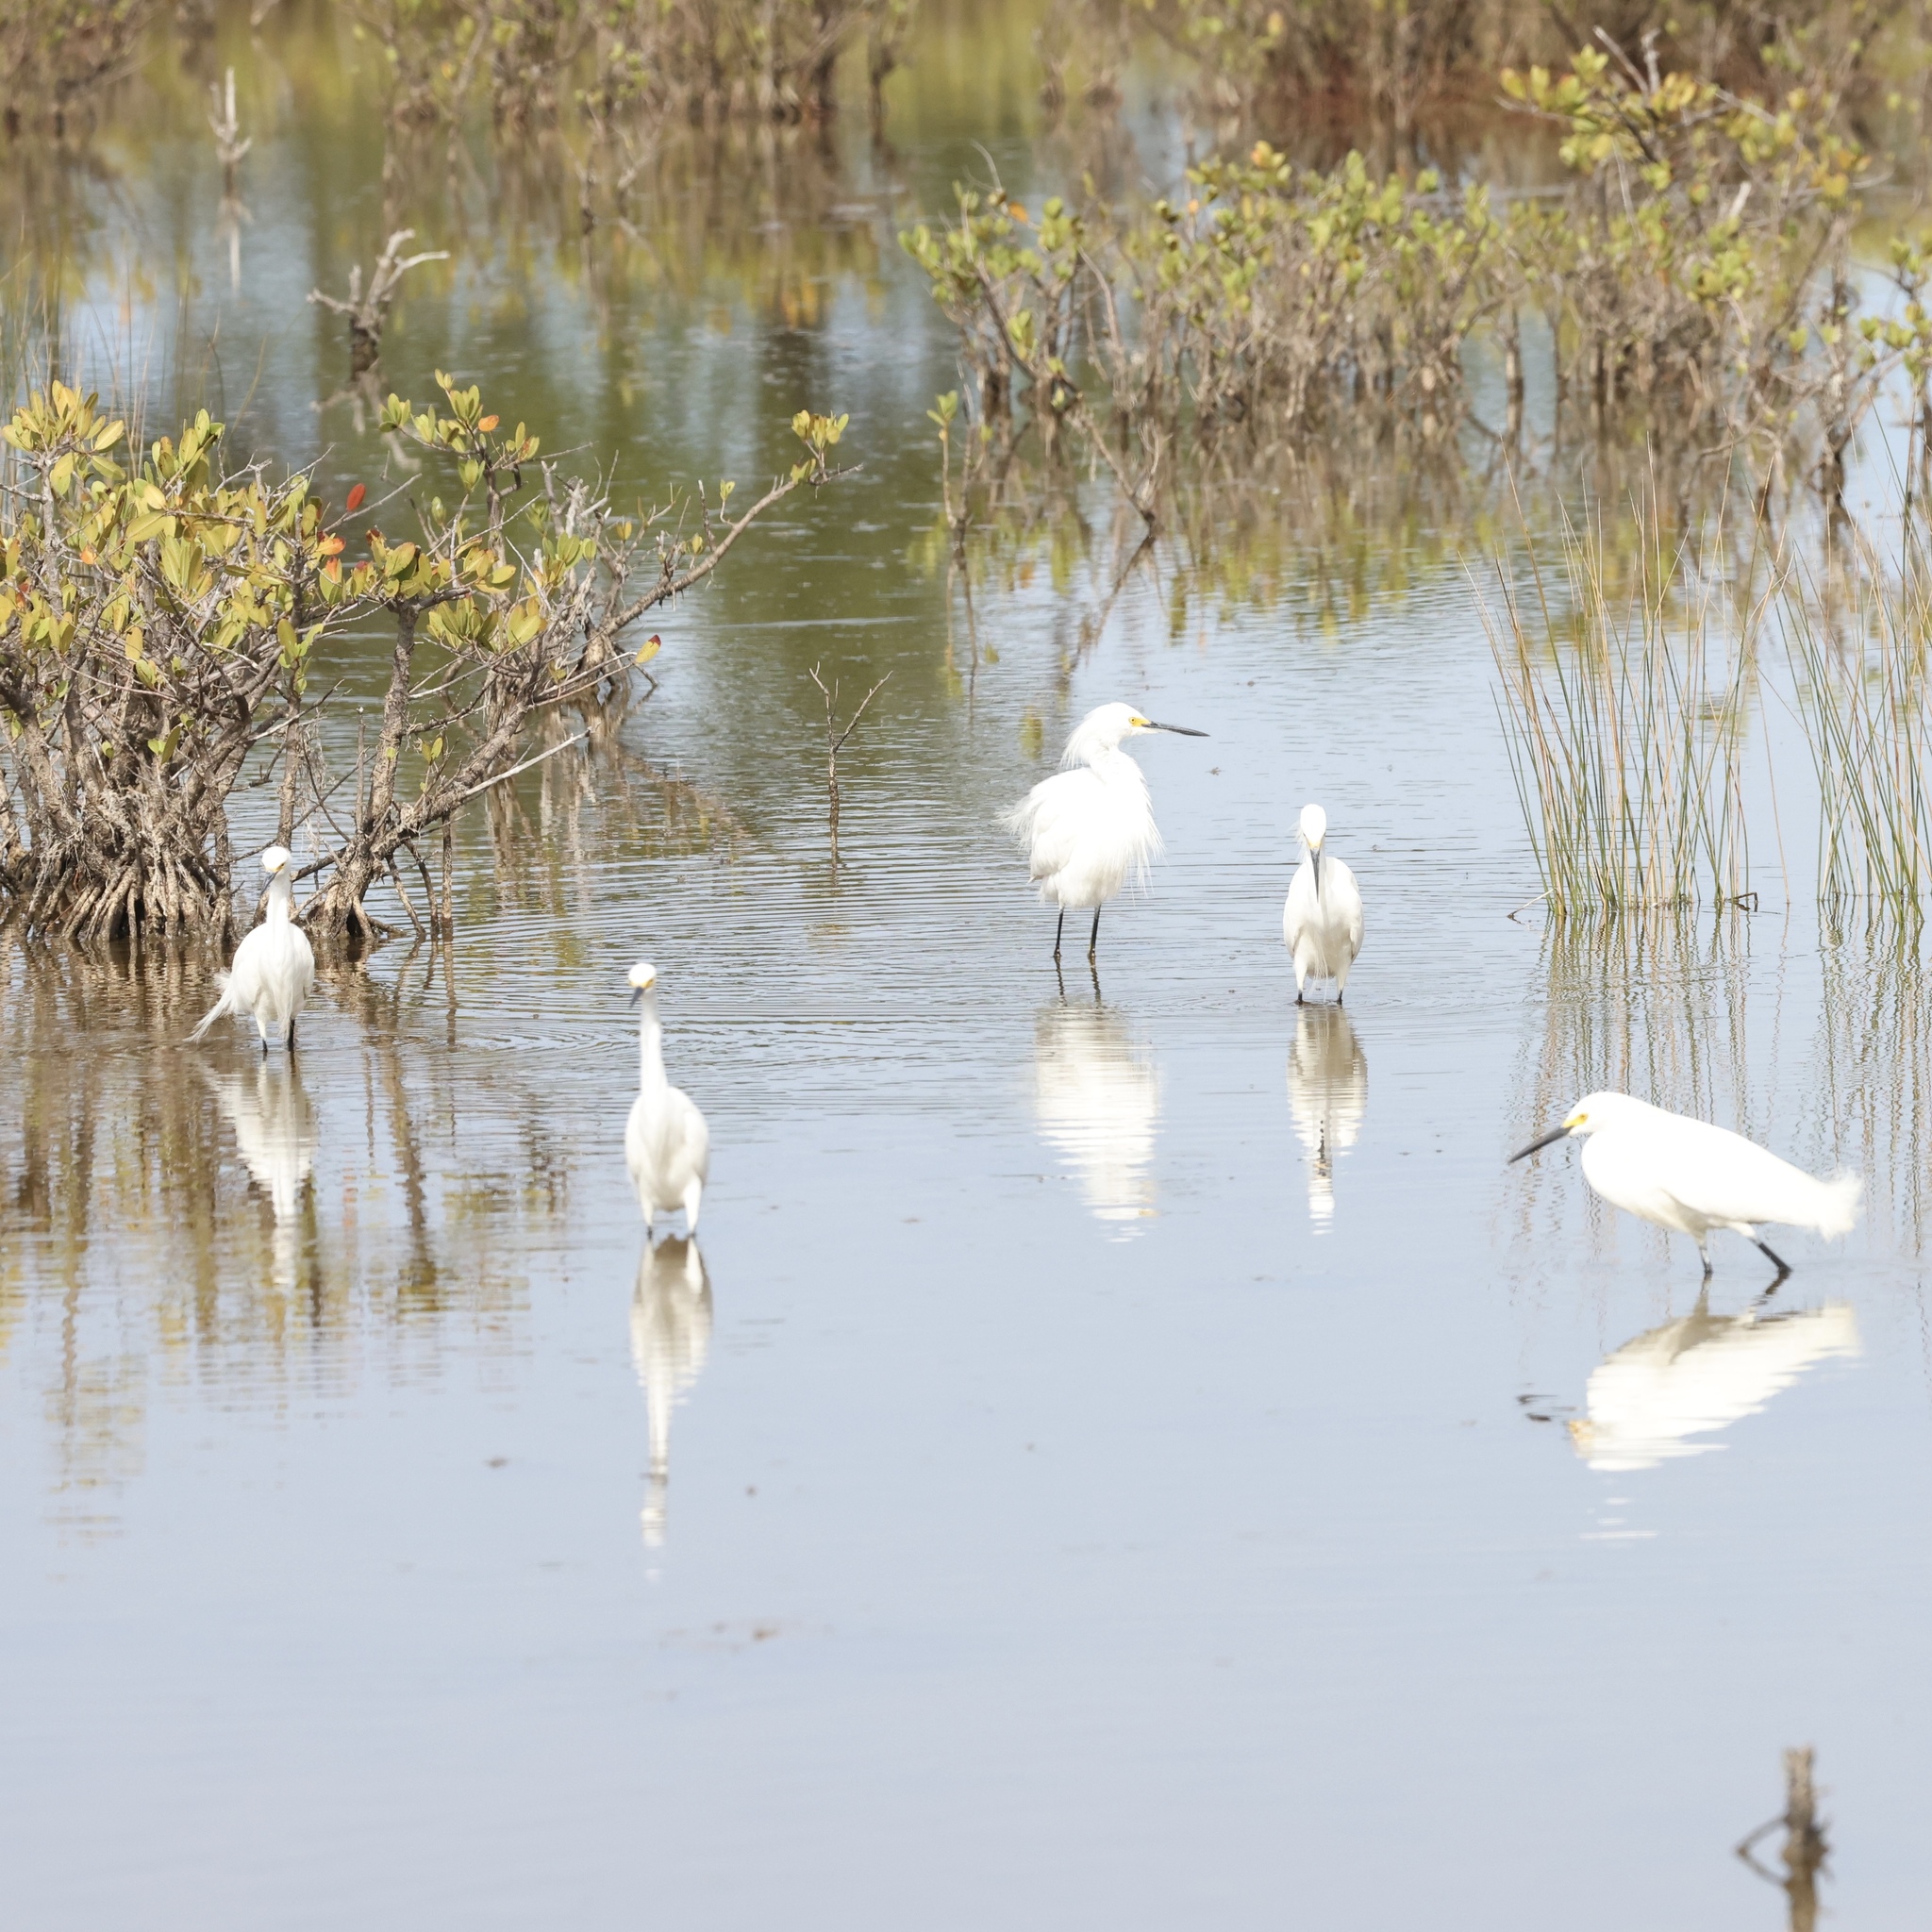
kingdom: Animalia
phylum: Chordata
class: Aves
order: Pelecaniformes
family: Ardeidae
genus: Egretta
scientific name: Egretta thula
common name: Snowy egret
